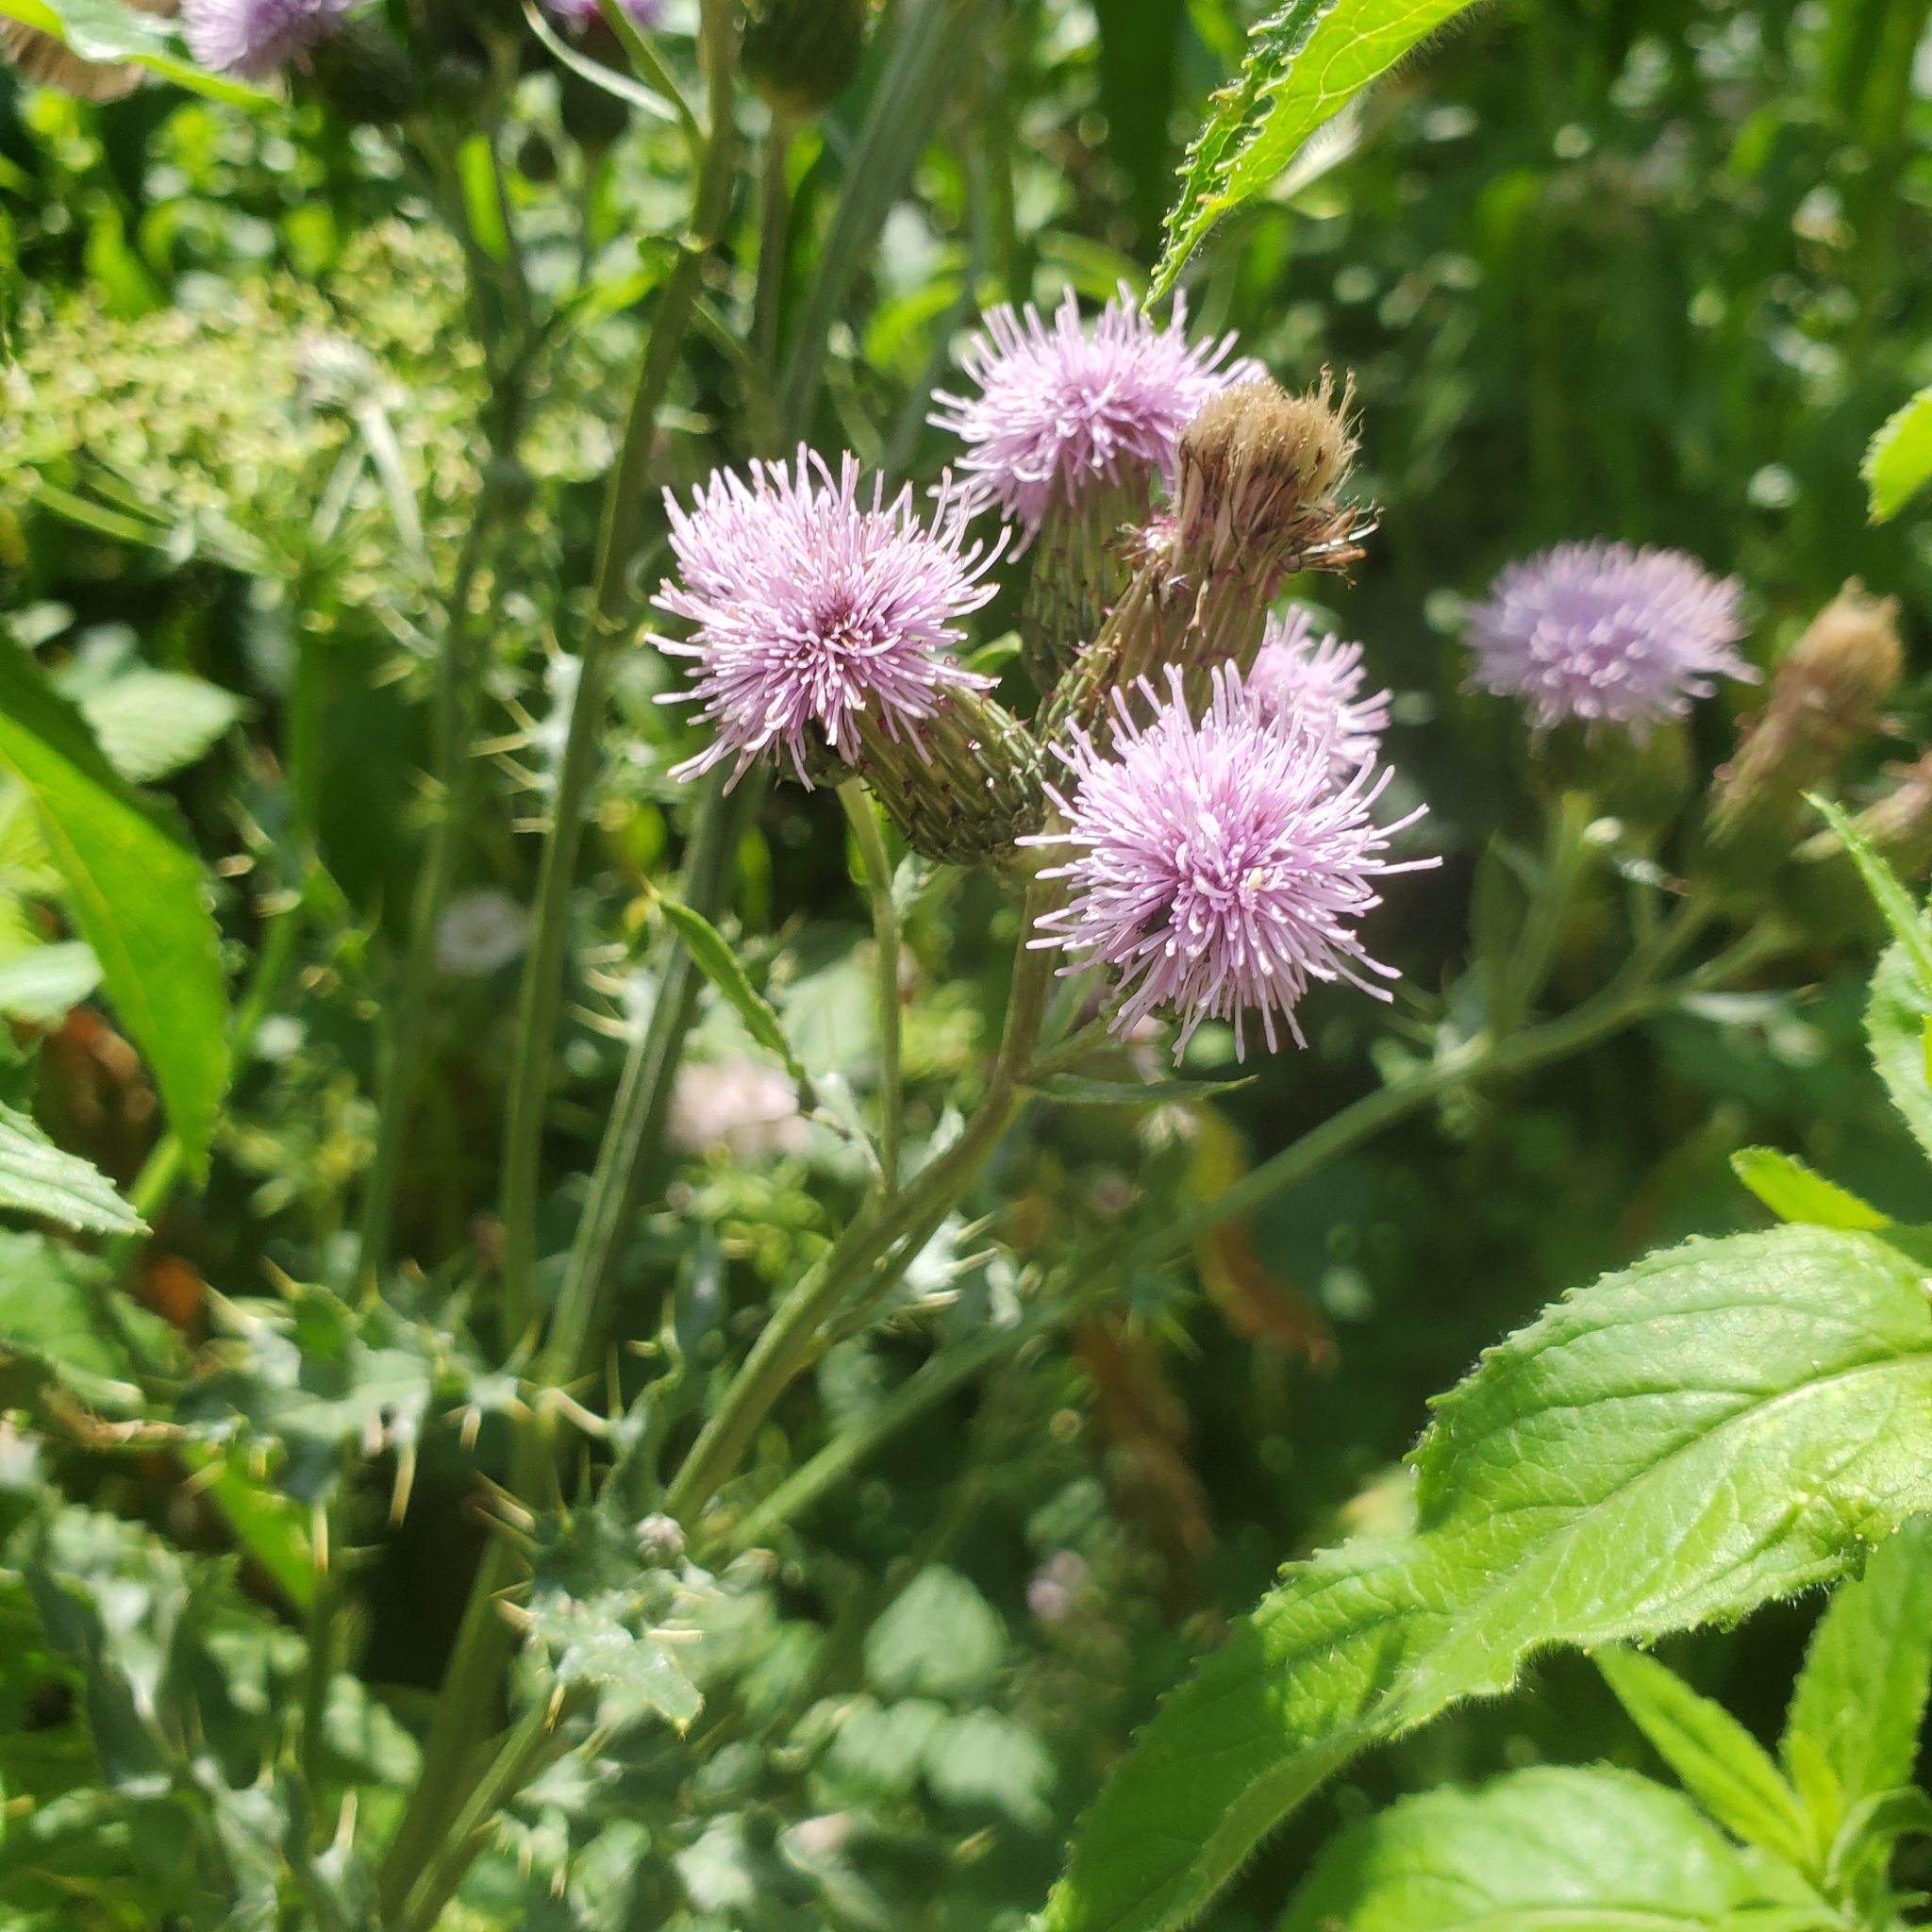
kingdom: Plantae
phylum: Tracheophyta
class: Magnoliopsida
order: Asterales
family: Asteraceae
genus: Cirsium
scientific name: Cirsium arvense
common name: Creeping thistle
